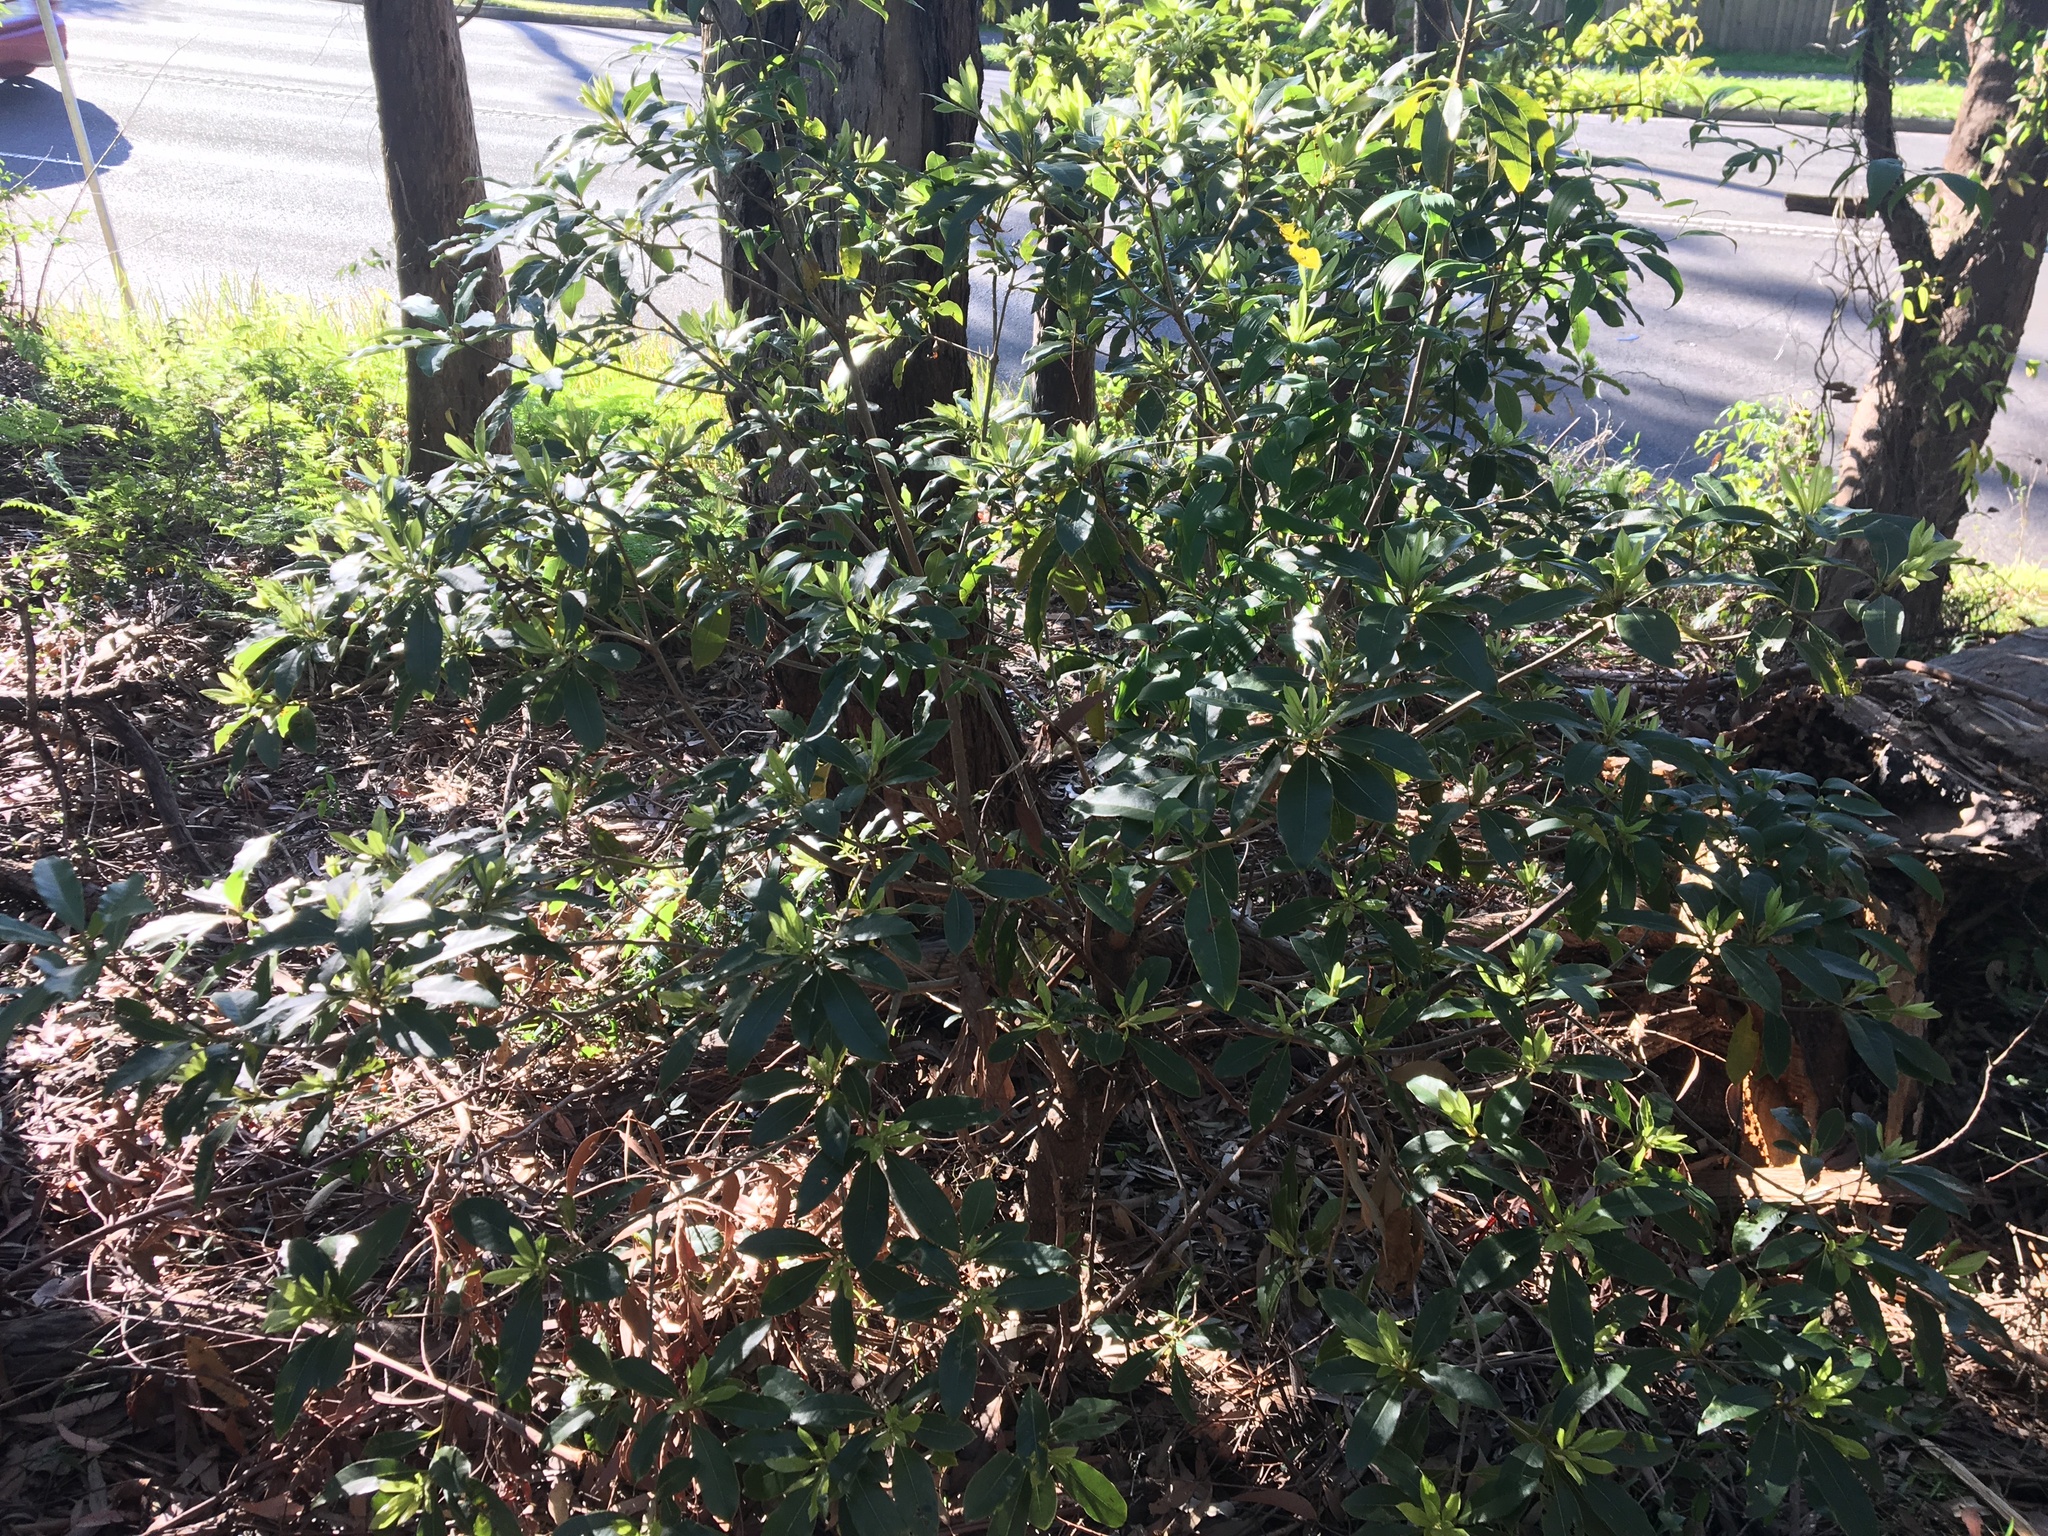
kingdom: Plantae
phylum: Tracheophyta
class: Magnoliopsida
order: Apiales
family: Pittosporaceae
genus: Pittosporum
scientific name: Pittosporum undulatum
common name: Australian cheesewood
